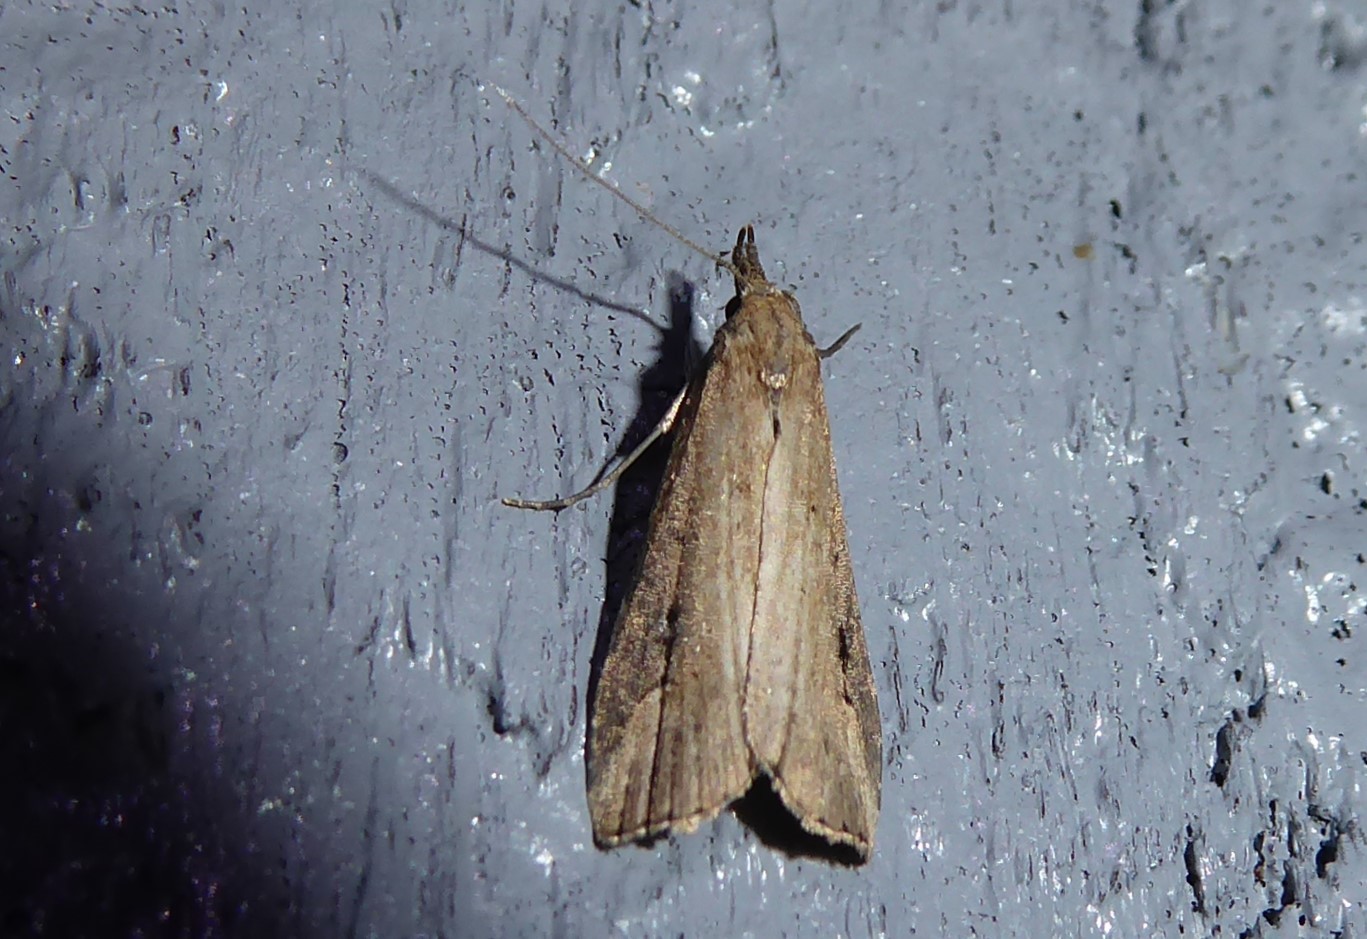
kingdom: Animalia
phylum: Arthropoda
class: Insecta
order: Lepidoptera
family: Erebidae
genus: Schrankia
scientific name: Schrankia costaestrigalis
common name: Pinion-streaked snout
